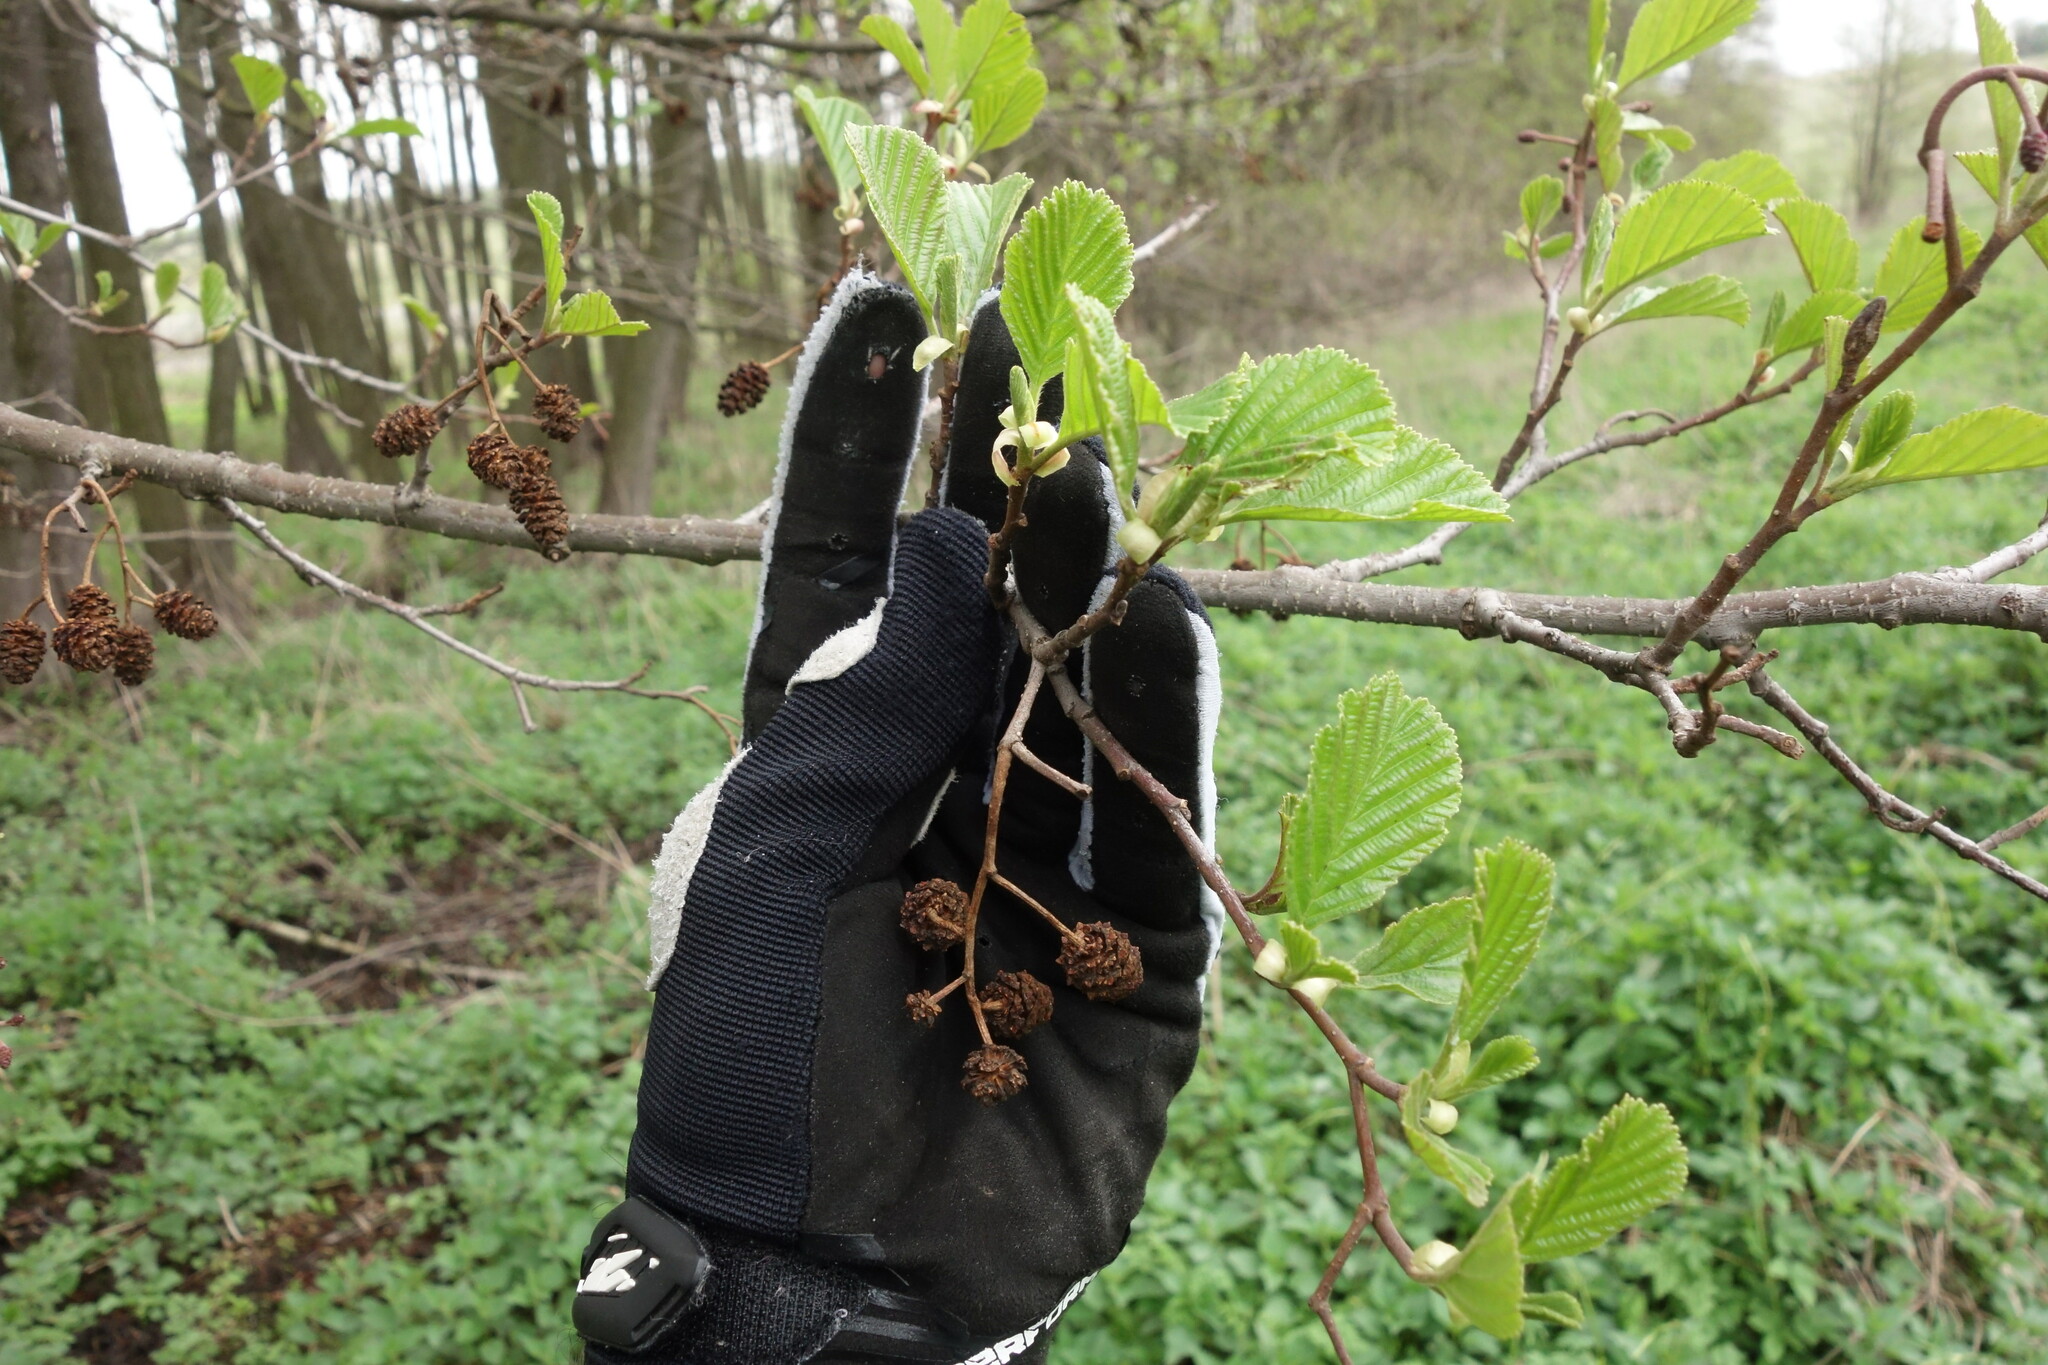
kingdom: Plantae
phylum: Tracheophyta
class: Magnoliopsida
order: Fagales
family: Betulaceae
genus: Alnus
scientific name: Alnus glutinosa
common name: Black alder
